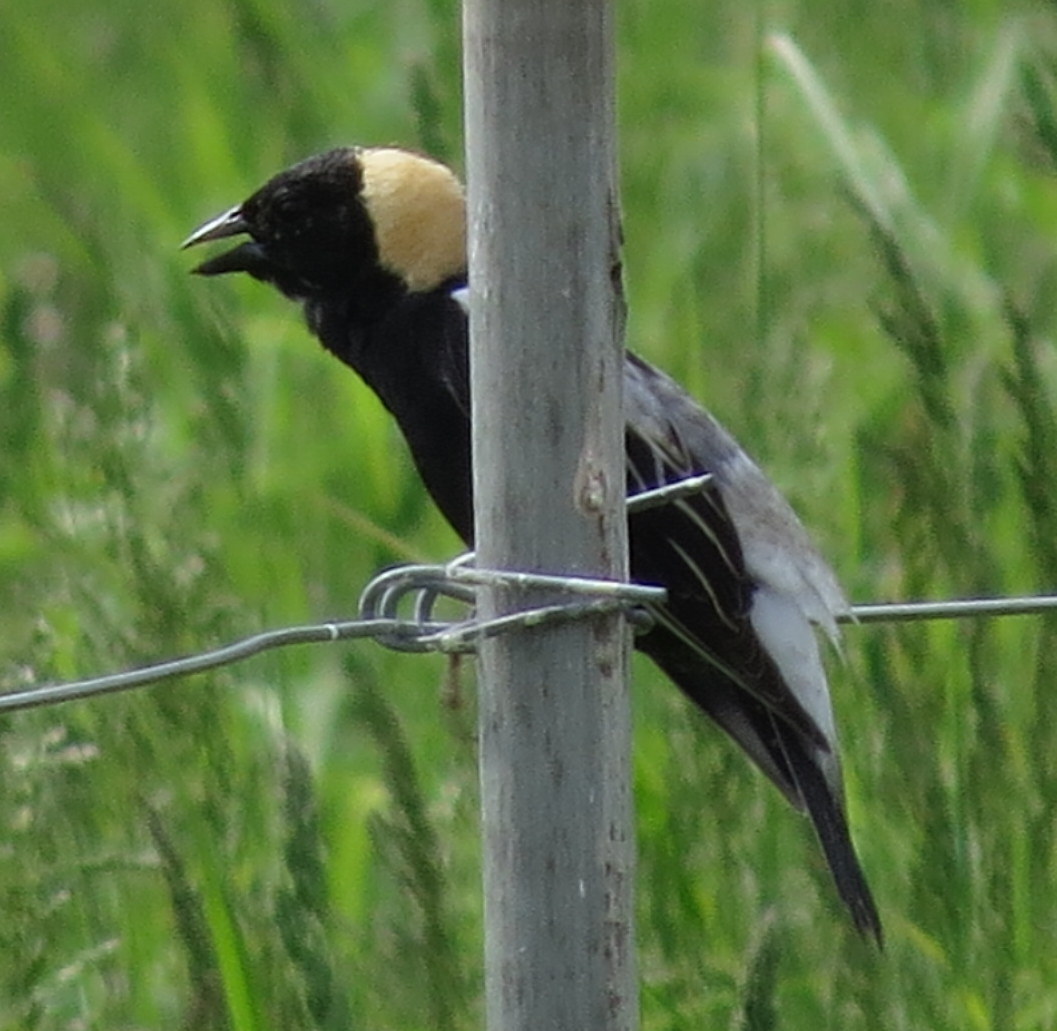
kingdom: Animalia
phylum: Chordata
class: Aves
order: Passeriformes
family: Icteridae
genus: Dolichonyx
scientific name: Dolichonyx oryzivorus
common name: Bobolink
